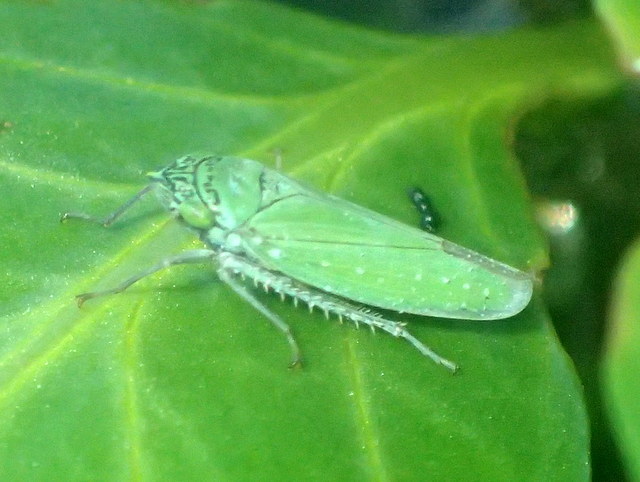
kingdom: Animalia
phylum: Arthropoda
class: Insecta
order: Hemiptera
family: Cicadellidae
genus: Draeculacephala
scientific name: Draeculacephala inscripta
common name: Leafhopper
